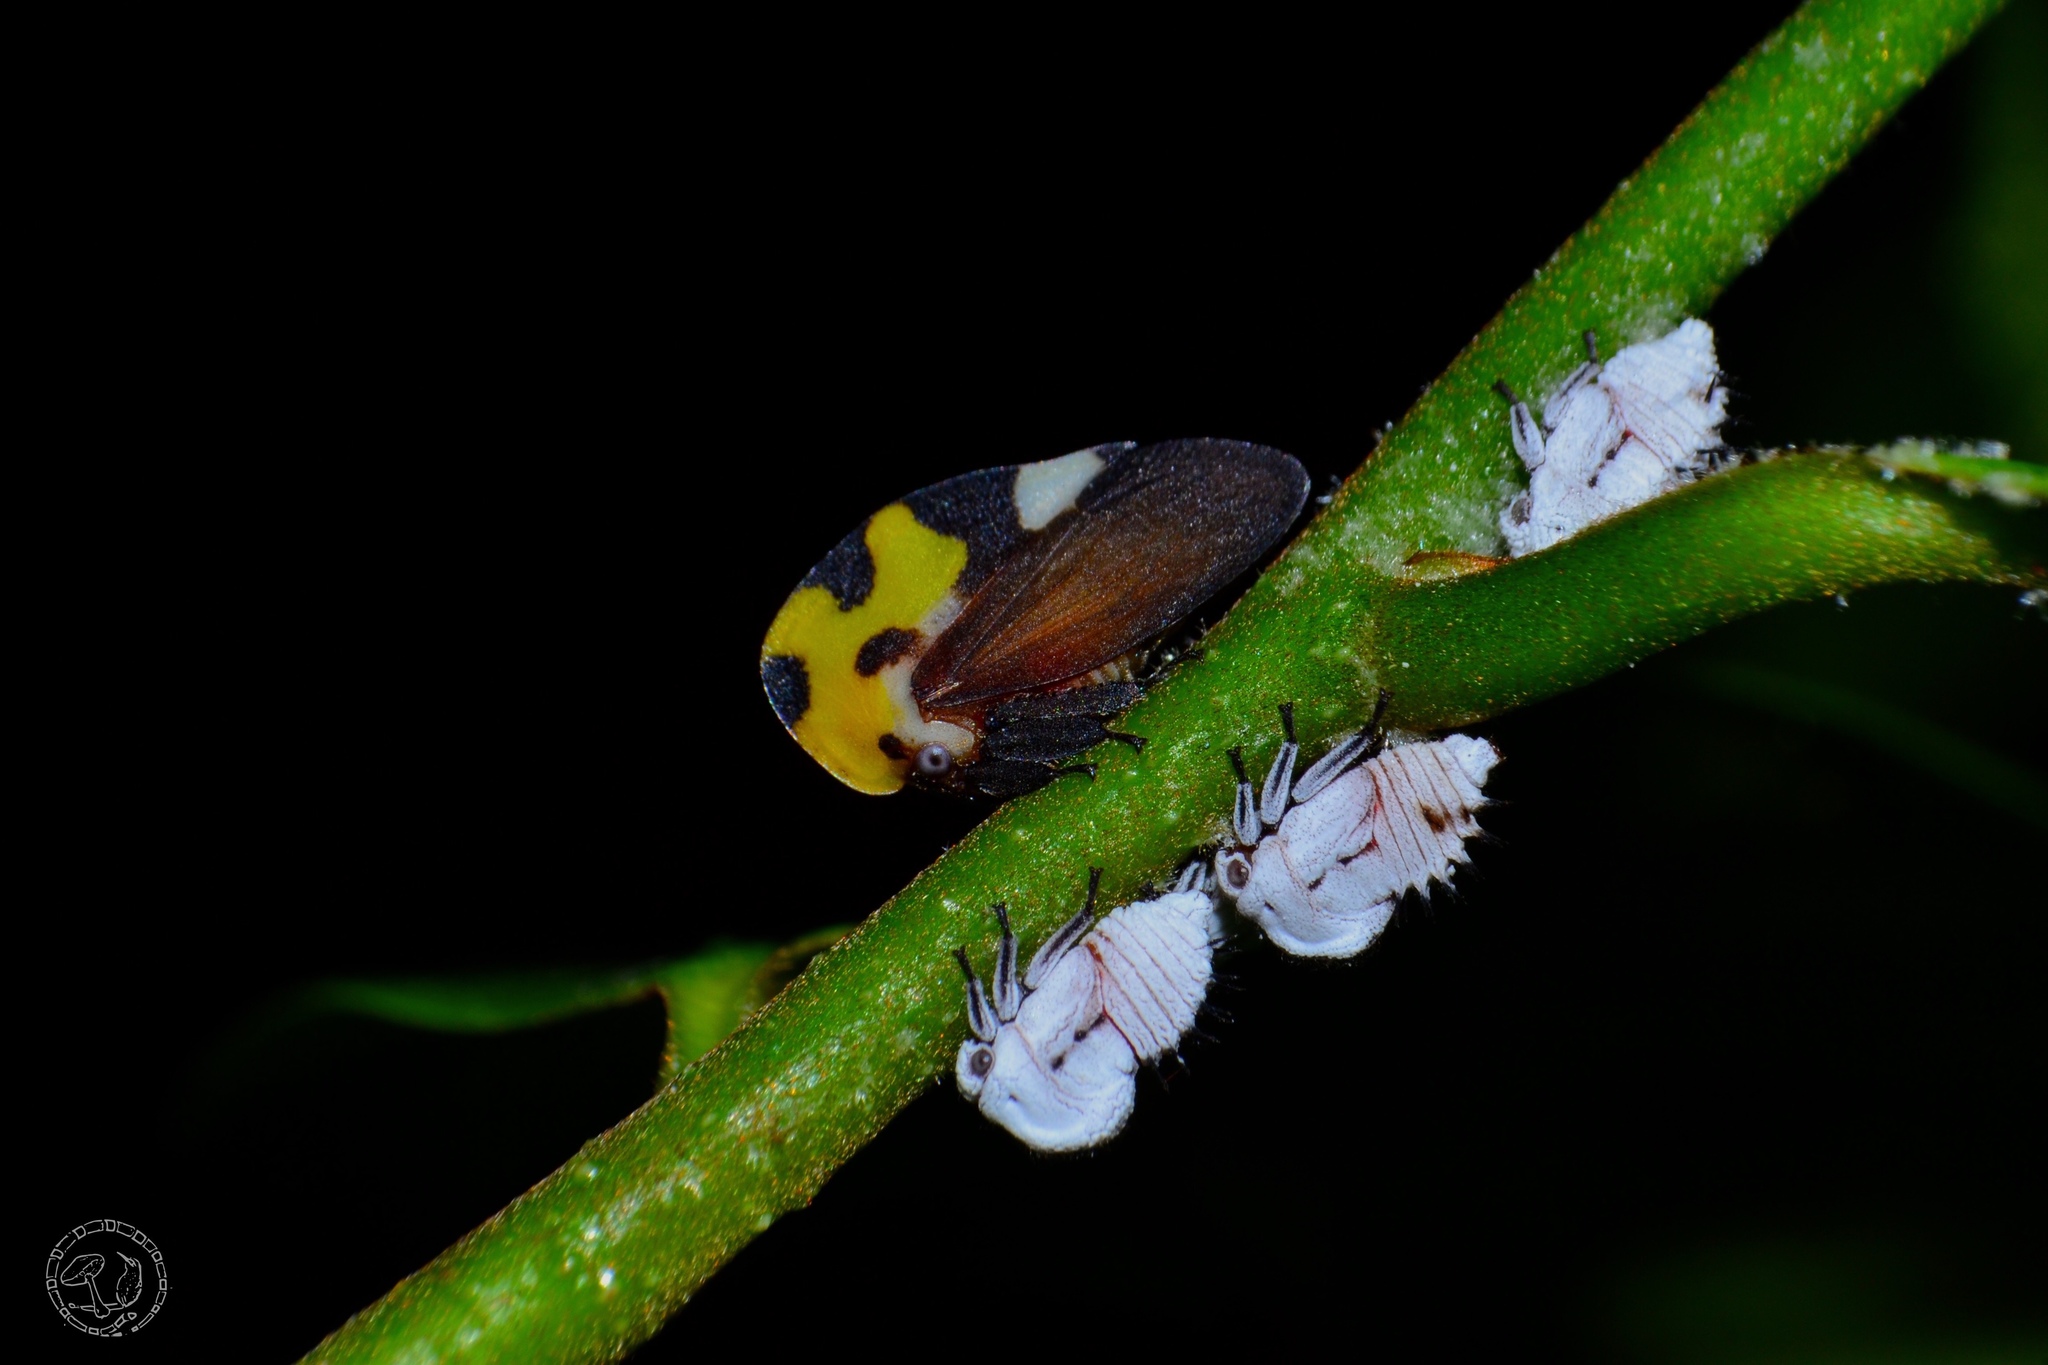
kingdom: Animalia
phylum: Arthropoda
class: Insecta
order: Hemiptera
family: Membracidae
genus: Membracis
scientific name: Membracis mexicana
